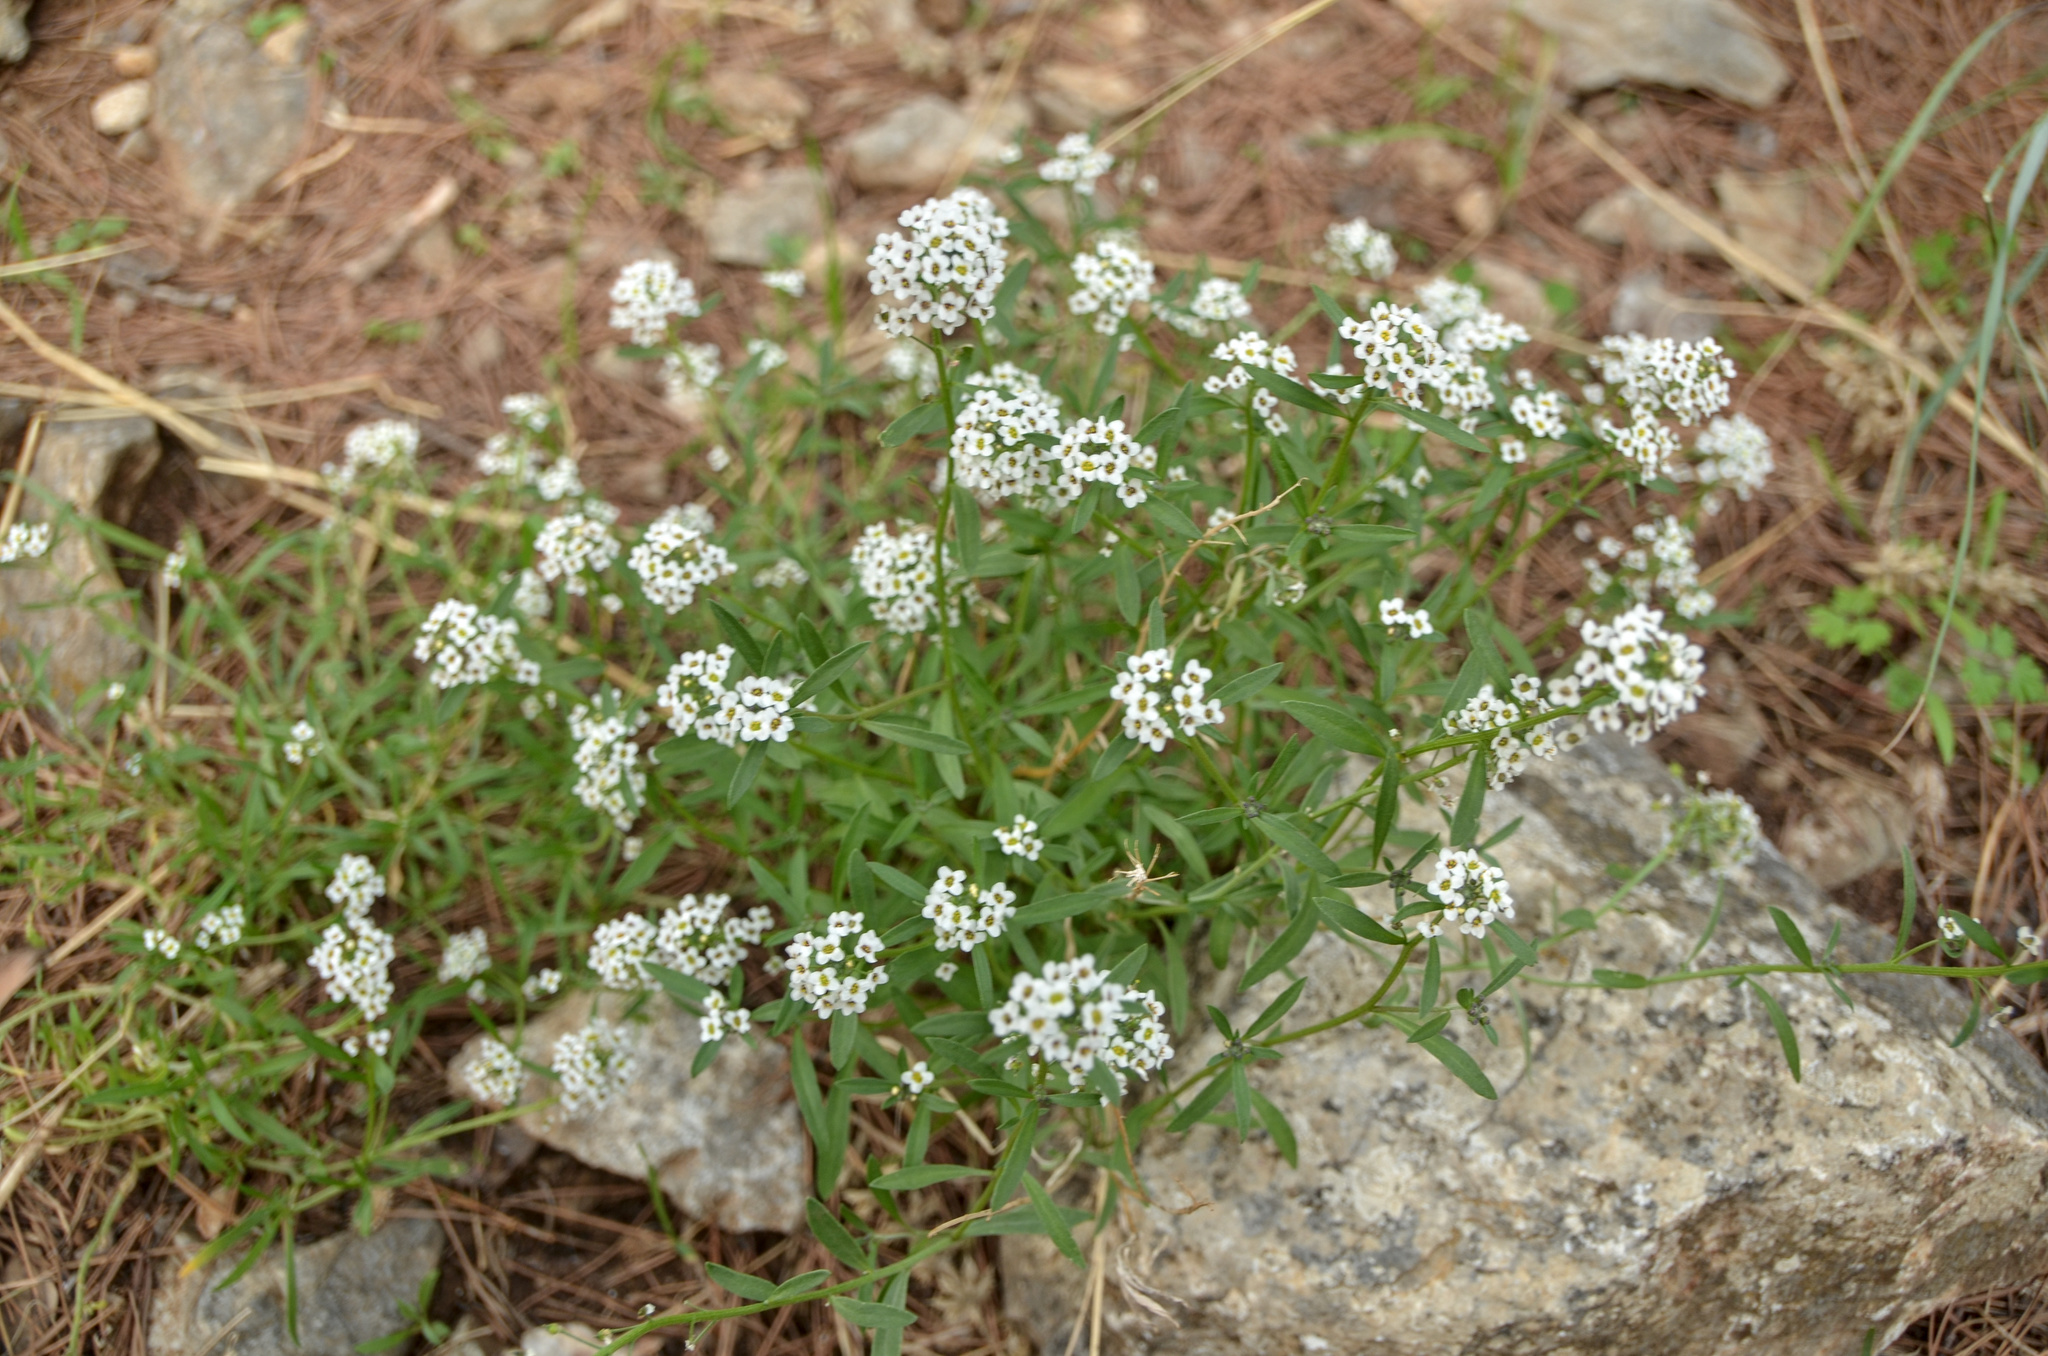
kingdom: Plantae
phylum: Tracheophyta
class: Magnoliopsida
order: Brassicales
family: Brassicaceae
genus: Lobularia
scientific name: Lobularia maritima
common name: Sweet alison
